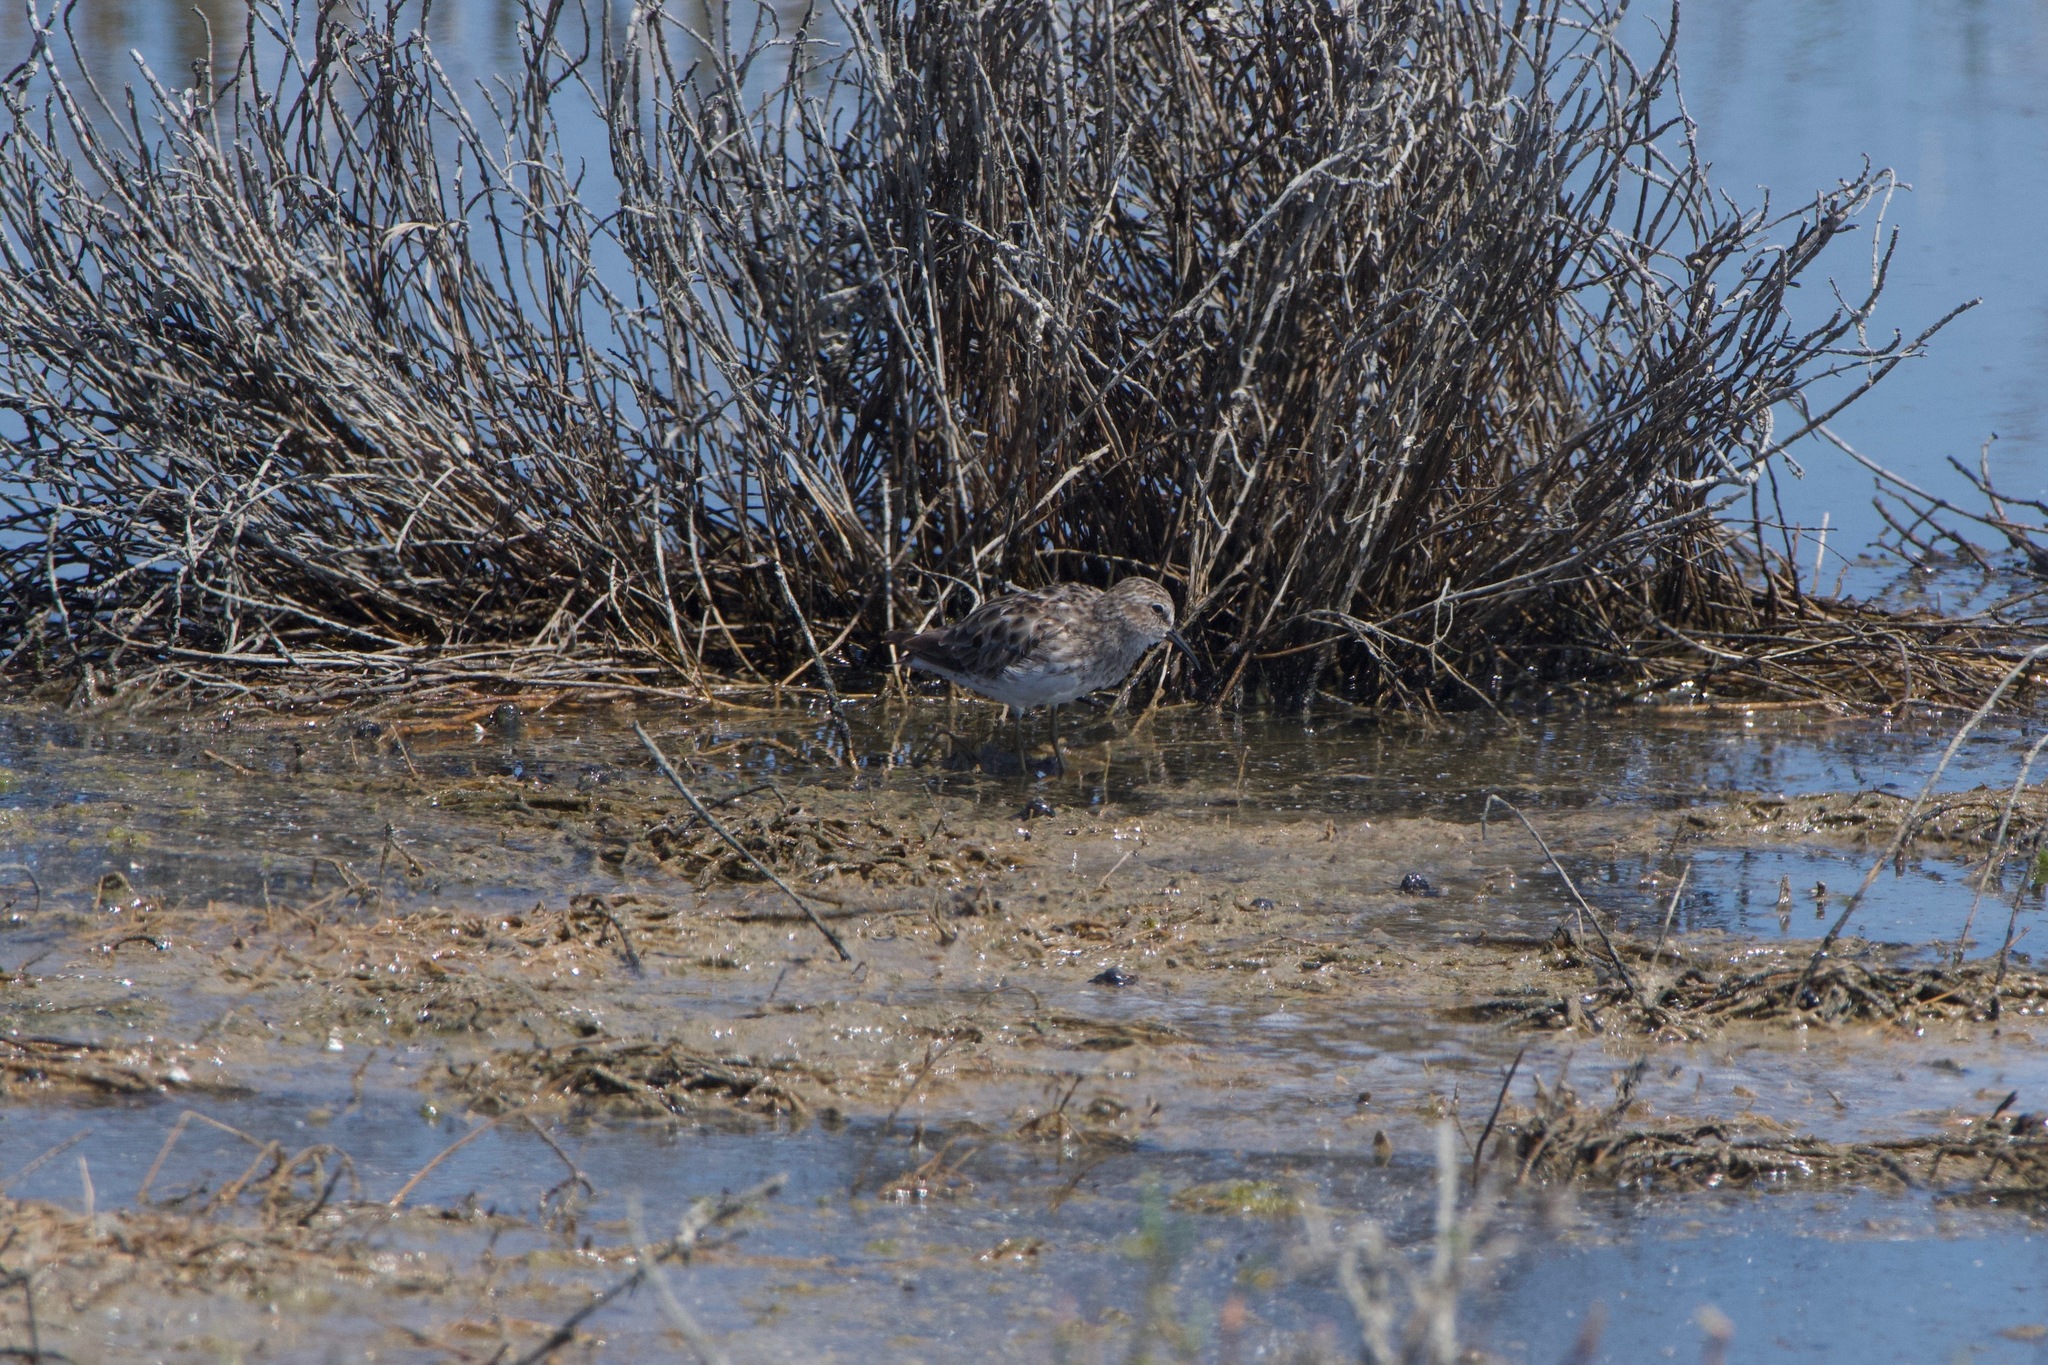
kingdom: Animalia
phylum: Chordata
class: Aves
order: Charadriiformes
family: Scolopacidae
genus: Calidris
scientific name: Calidris minutilla
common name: Least sandpiper
